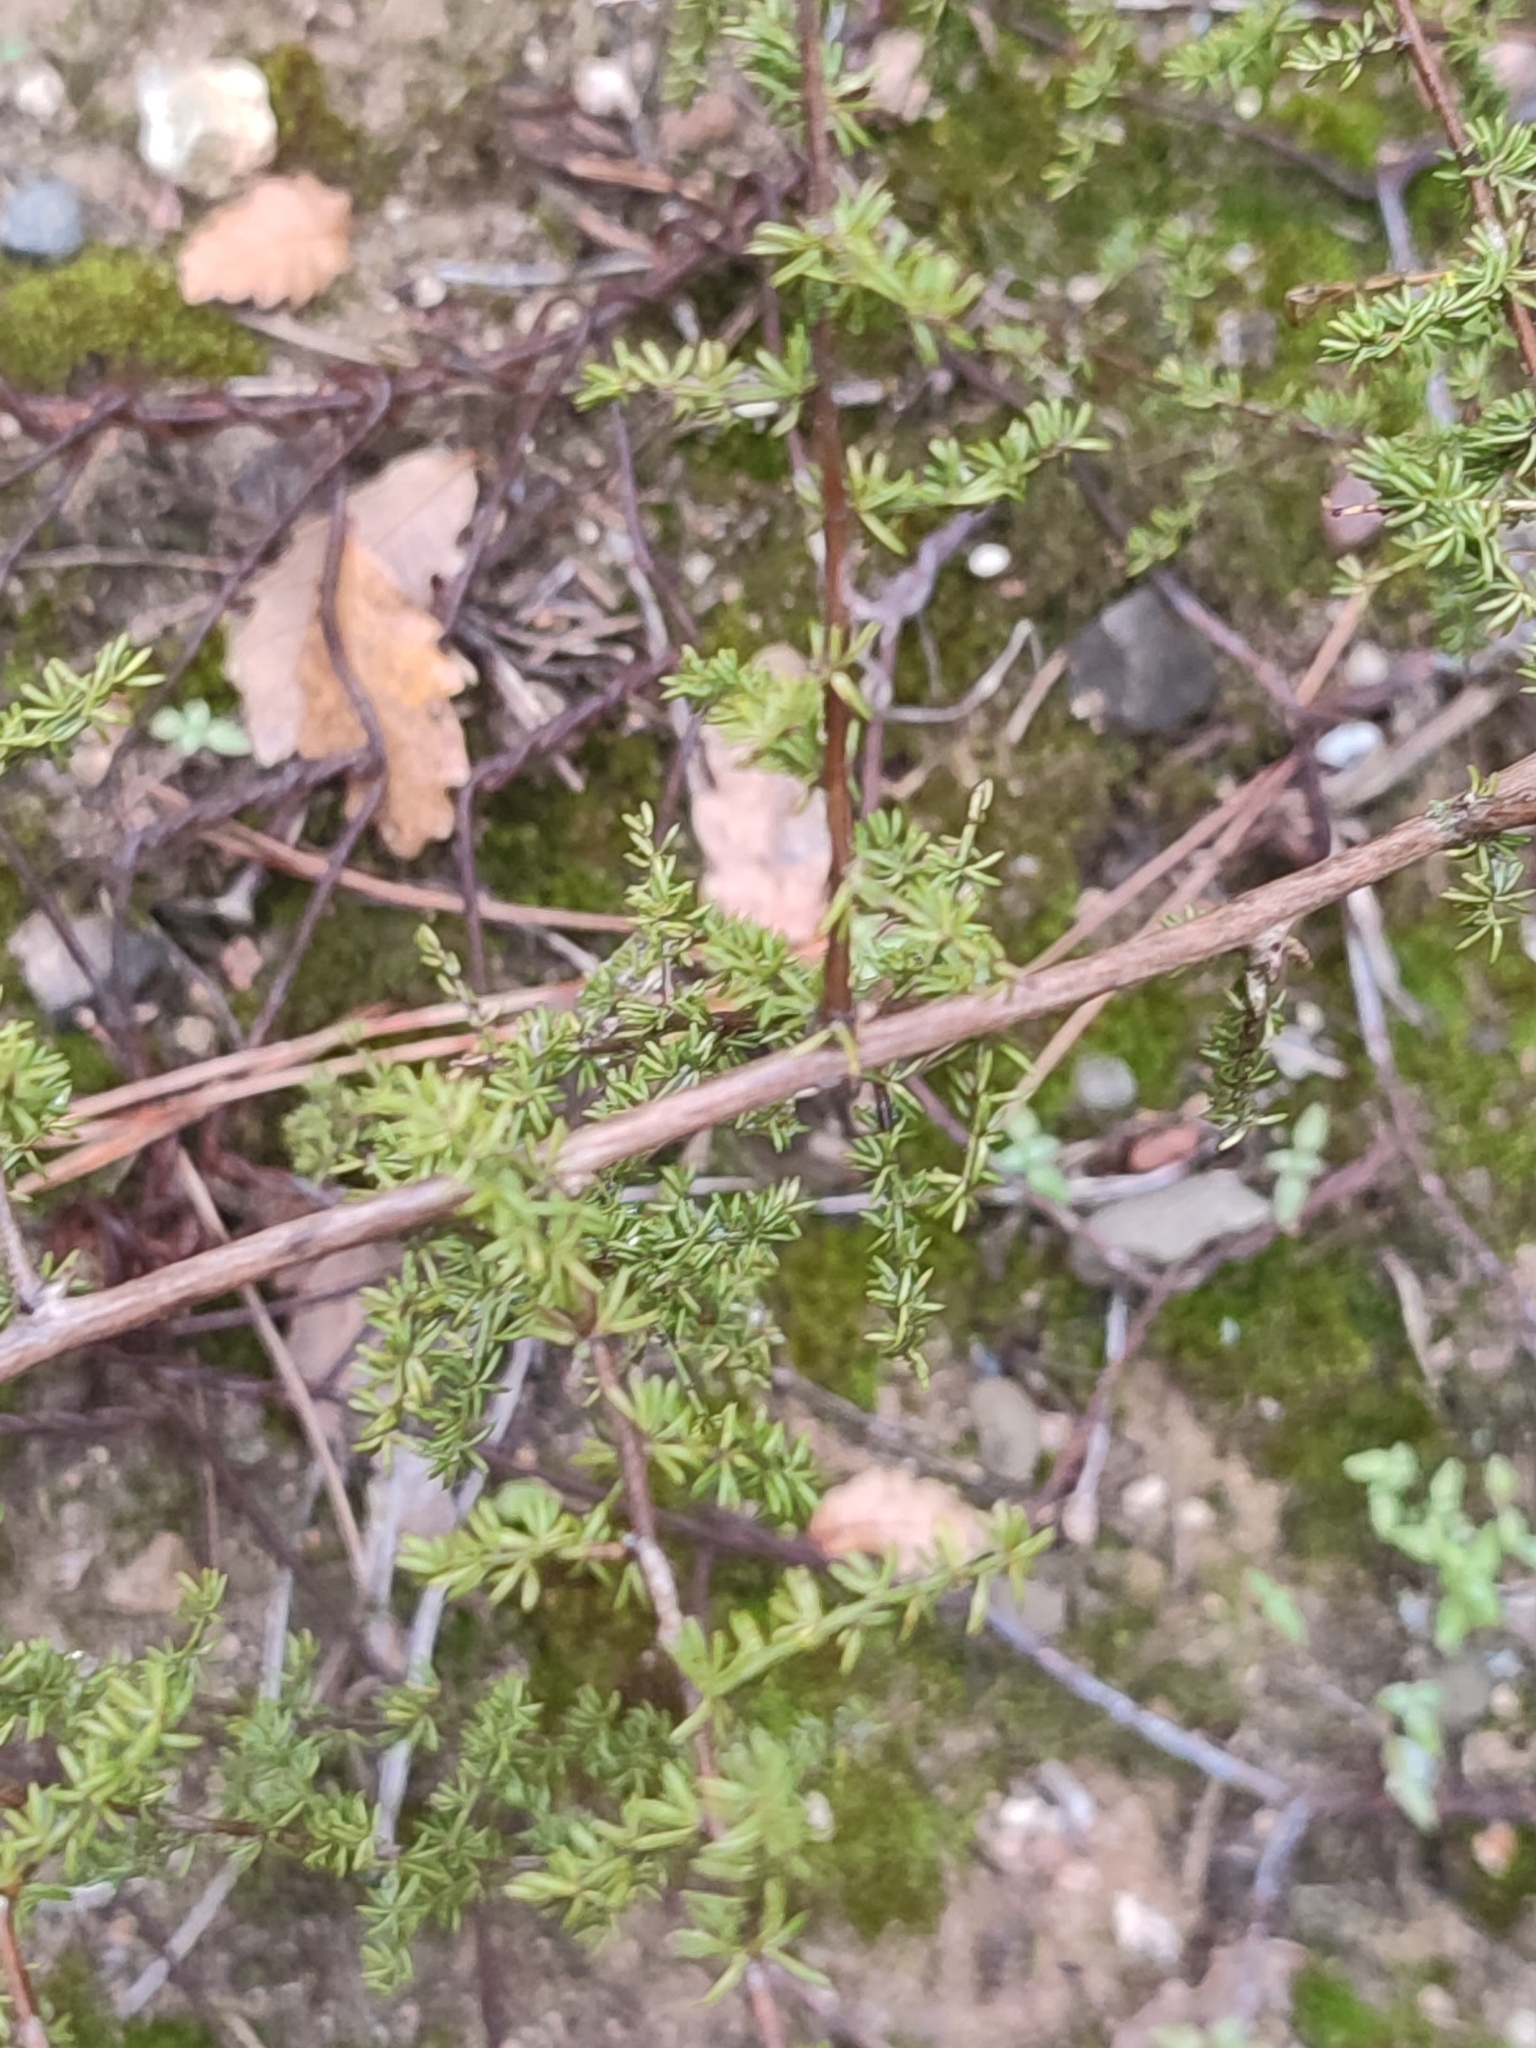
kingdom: Plantae
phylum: Tracheophyta
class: Liliopsida
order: Asparagales
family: Asparagaceae
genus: Asparagus
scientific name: Asparagus acutifolius
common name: Wild asparagus
